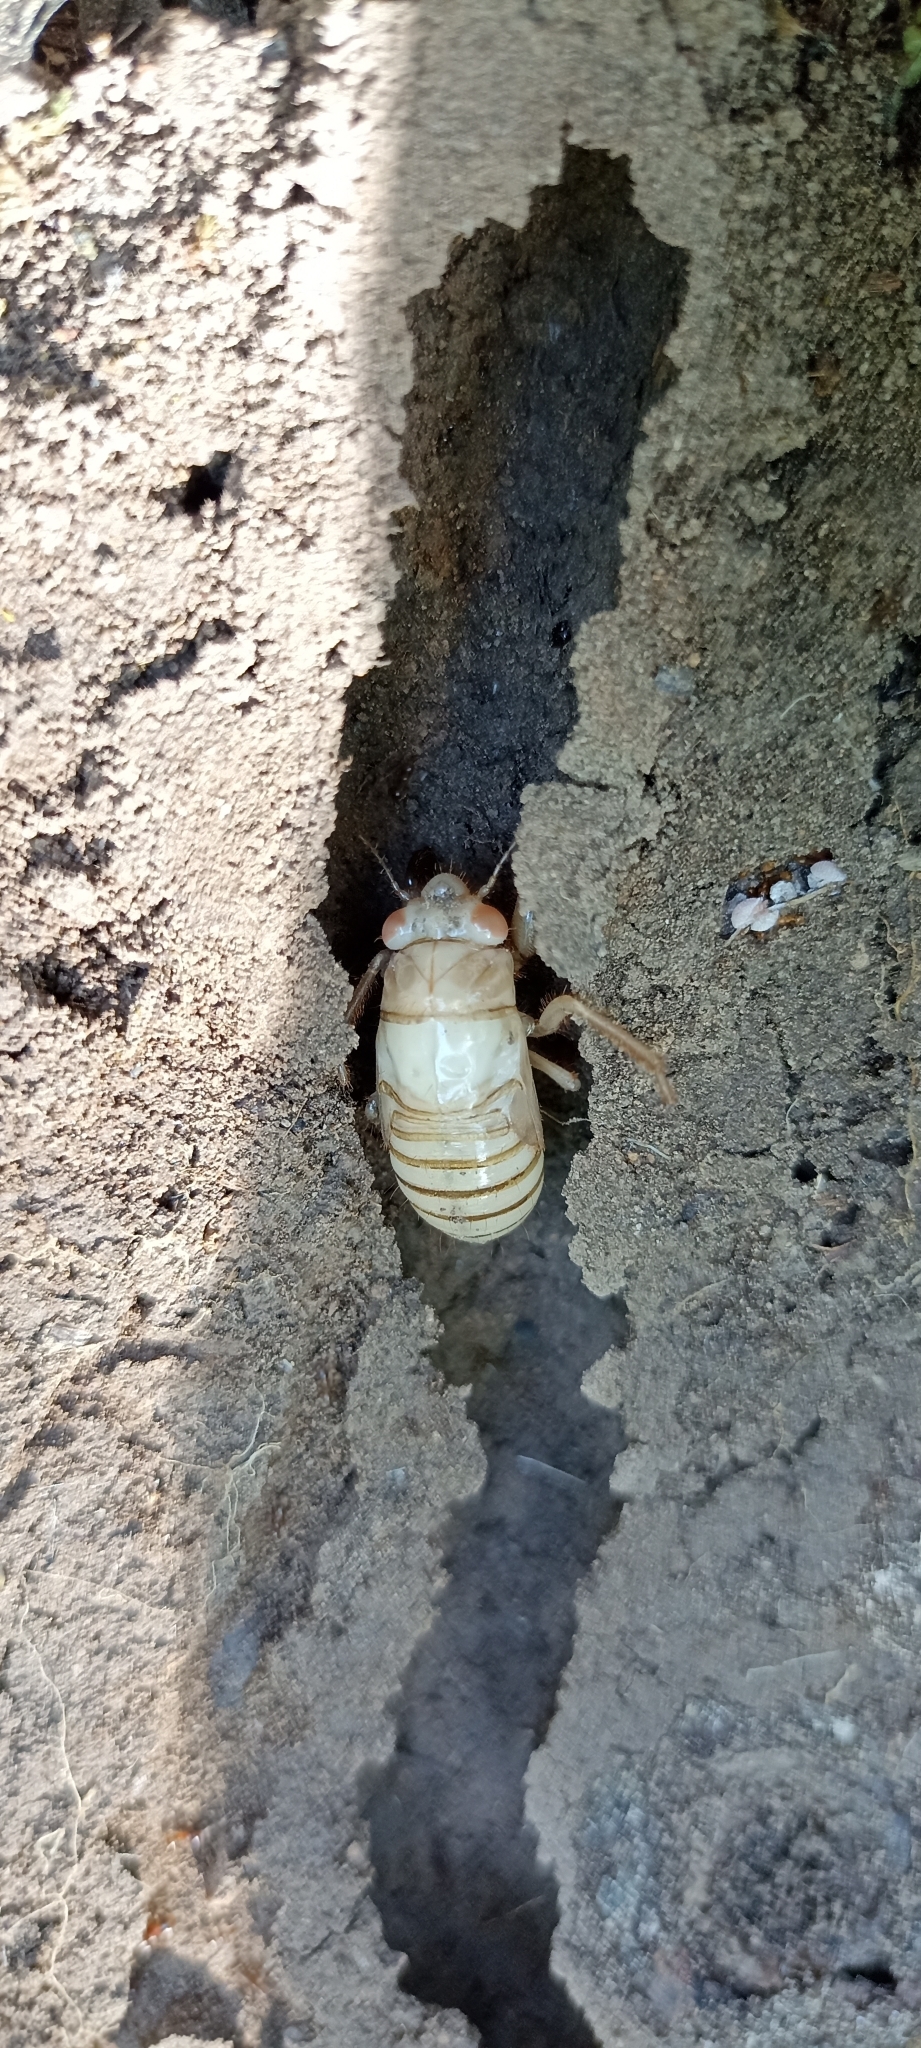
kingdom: Animalia
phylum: Arthropoda
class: Insecta
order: Hemiptera
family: Cicadidae
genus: Lyristes
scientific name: Lyristes plebejus
